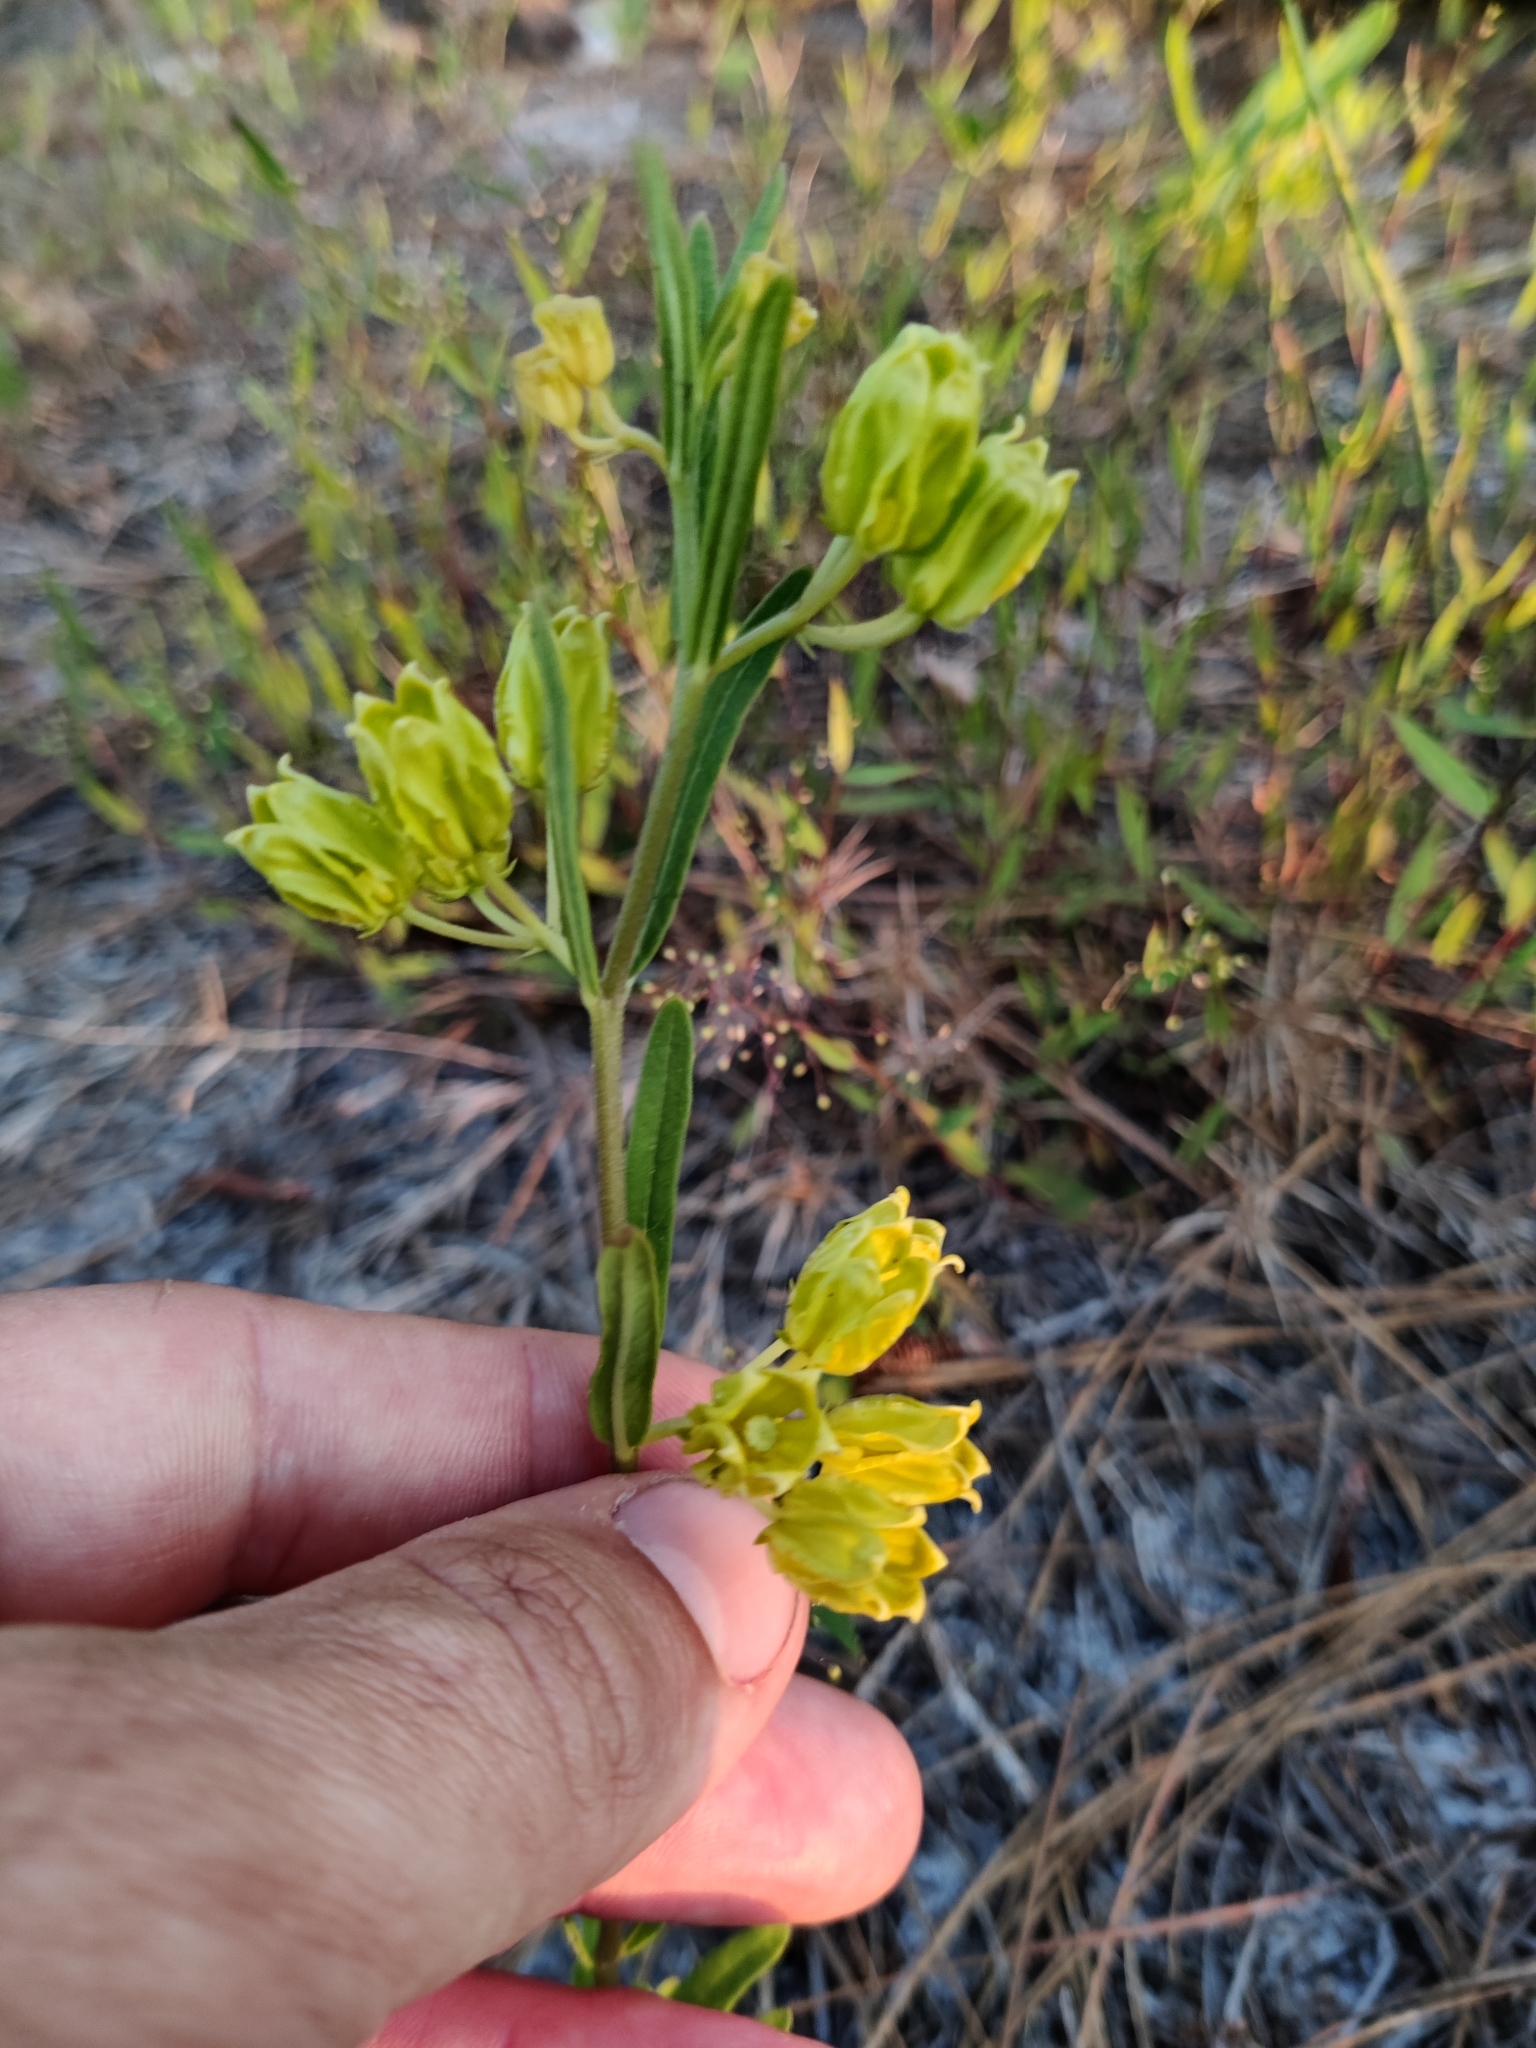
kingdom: Plantae
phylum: Tracheophyta
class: Magnoliopsida
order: Gentianales
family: Apocynaceae
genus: Asclepias
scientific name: Asclepias pedicellata
